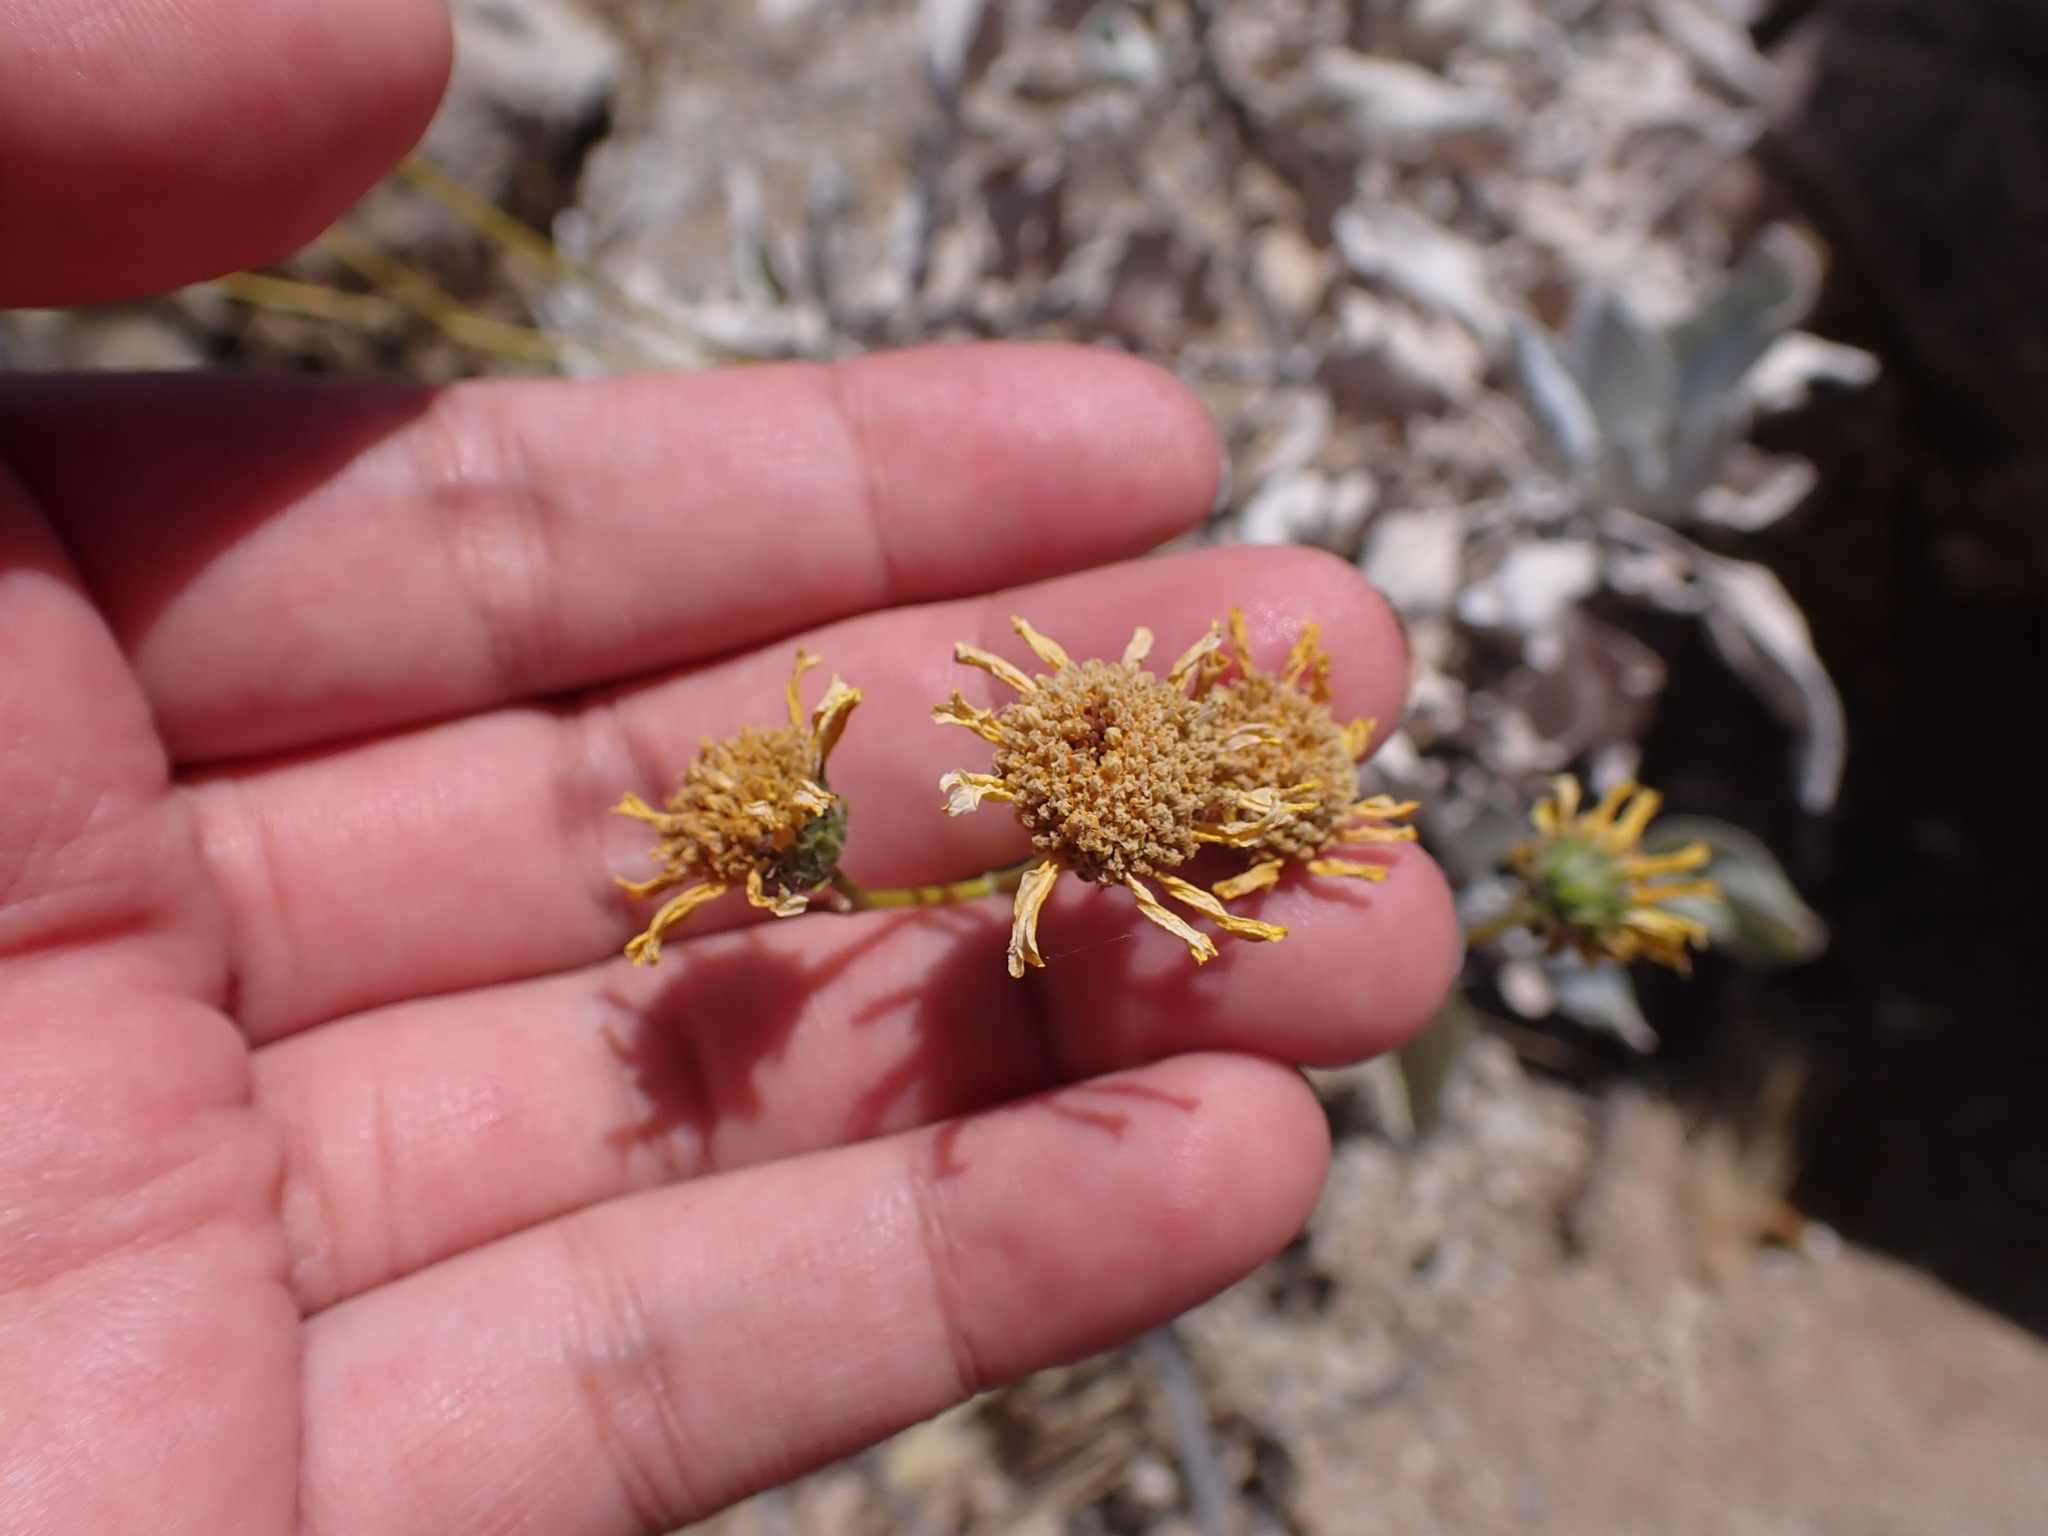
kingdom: Plantae
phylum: Tracheophyta
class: Magnoliopsida
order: Asterales
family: Asteraceae
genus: Encelia
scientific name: Encelia farinosa
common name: Brittlebush
